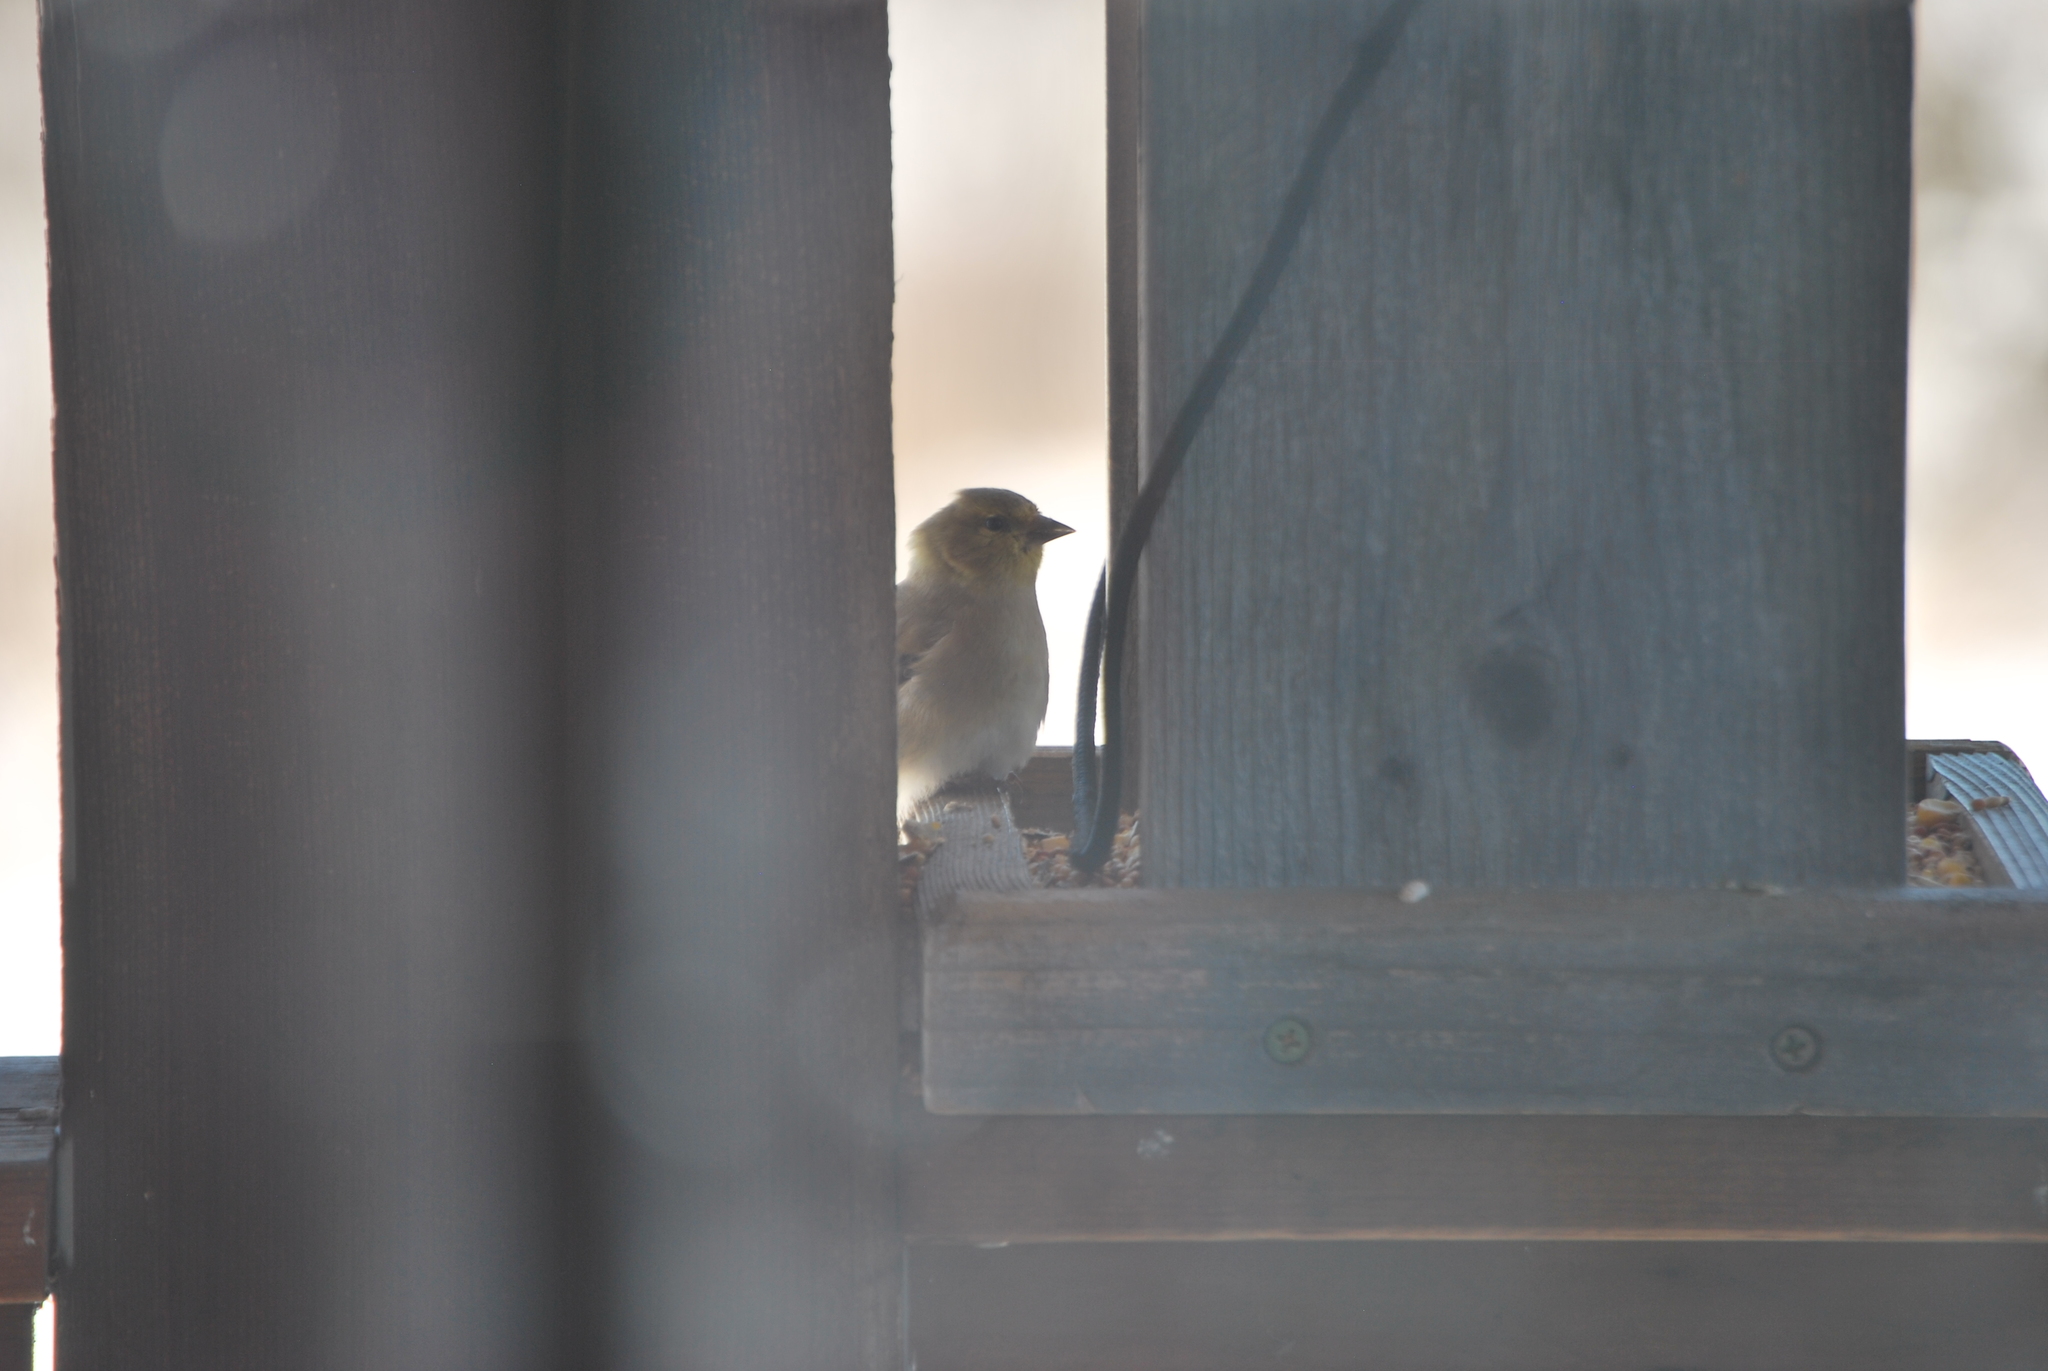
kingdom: Animalia
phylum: Chordata
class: Aves
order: Passeriformes
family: Fringillidae
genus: Spinus
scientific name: Spinus tristis
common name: American goldfinch
